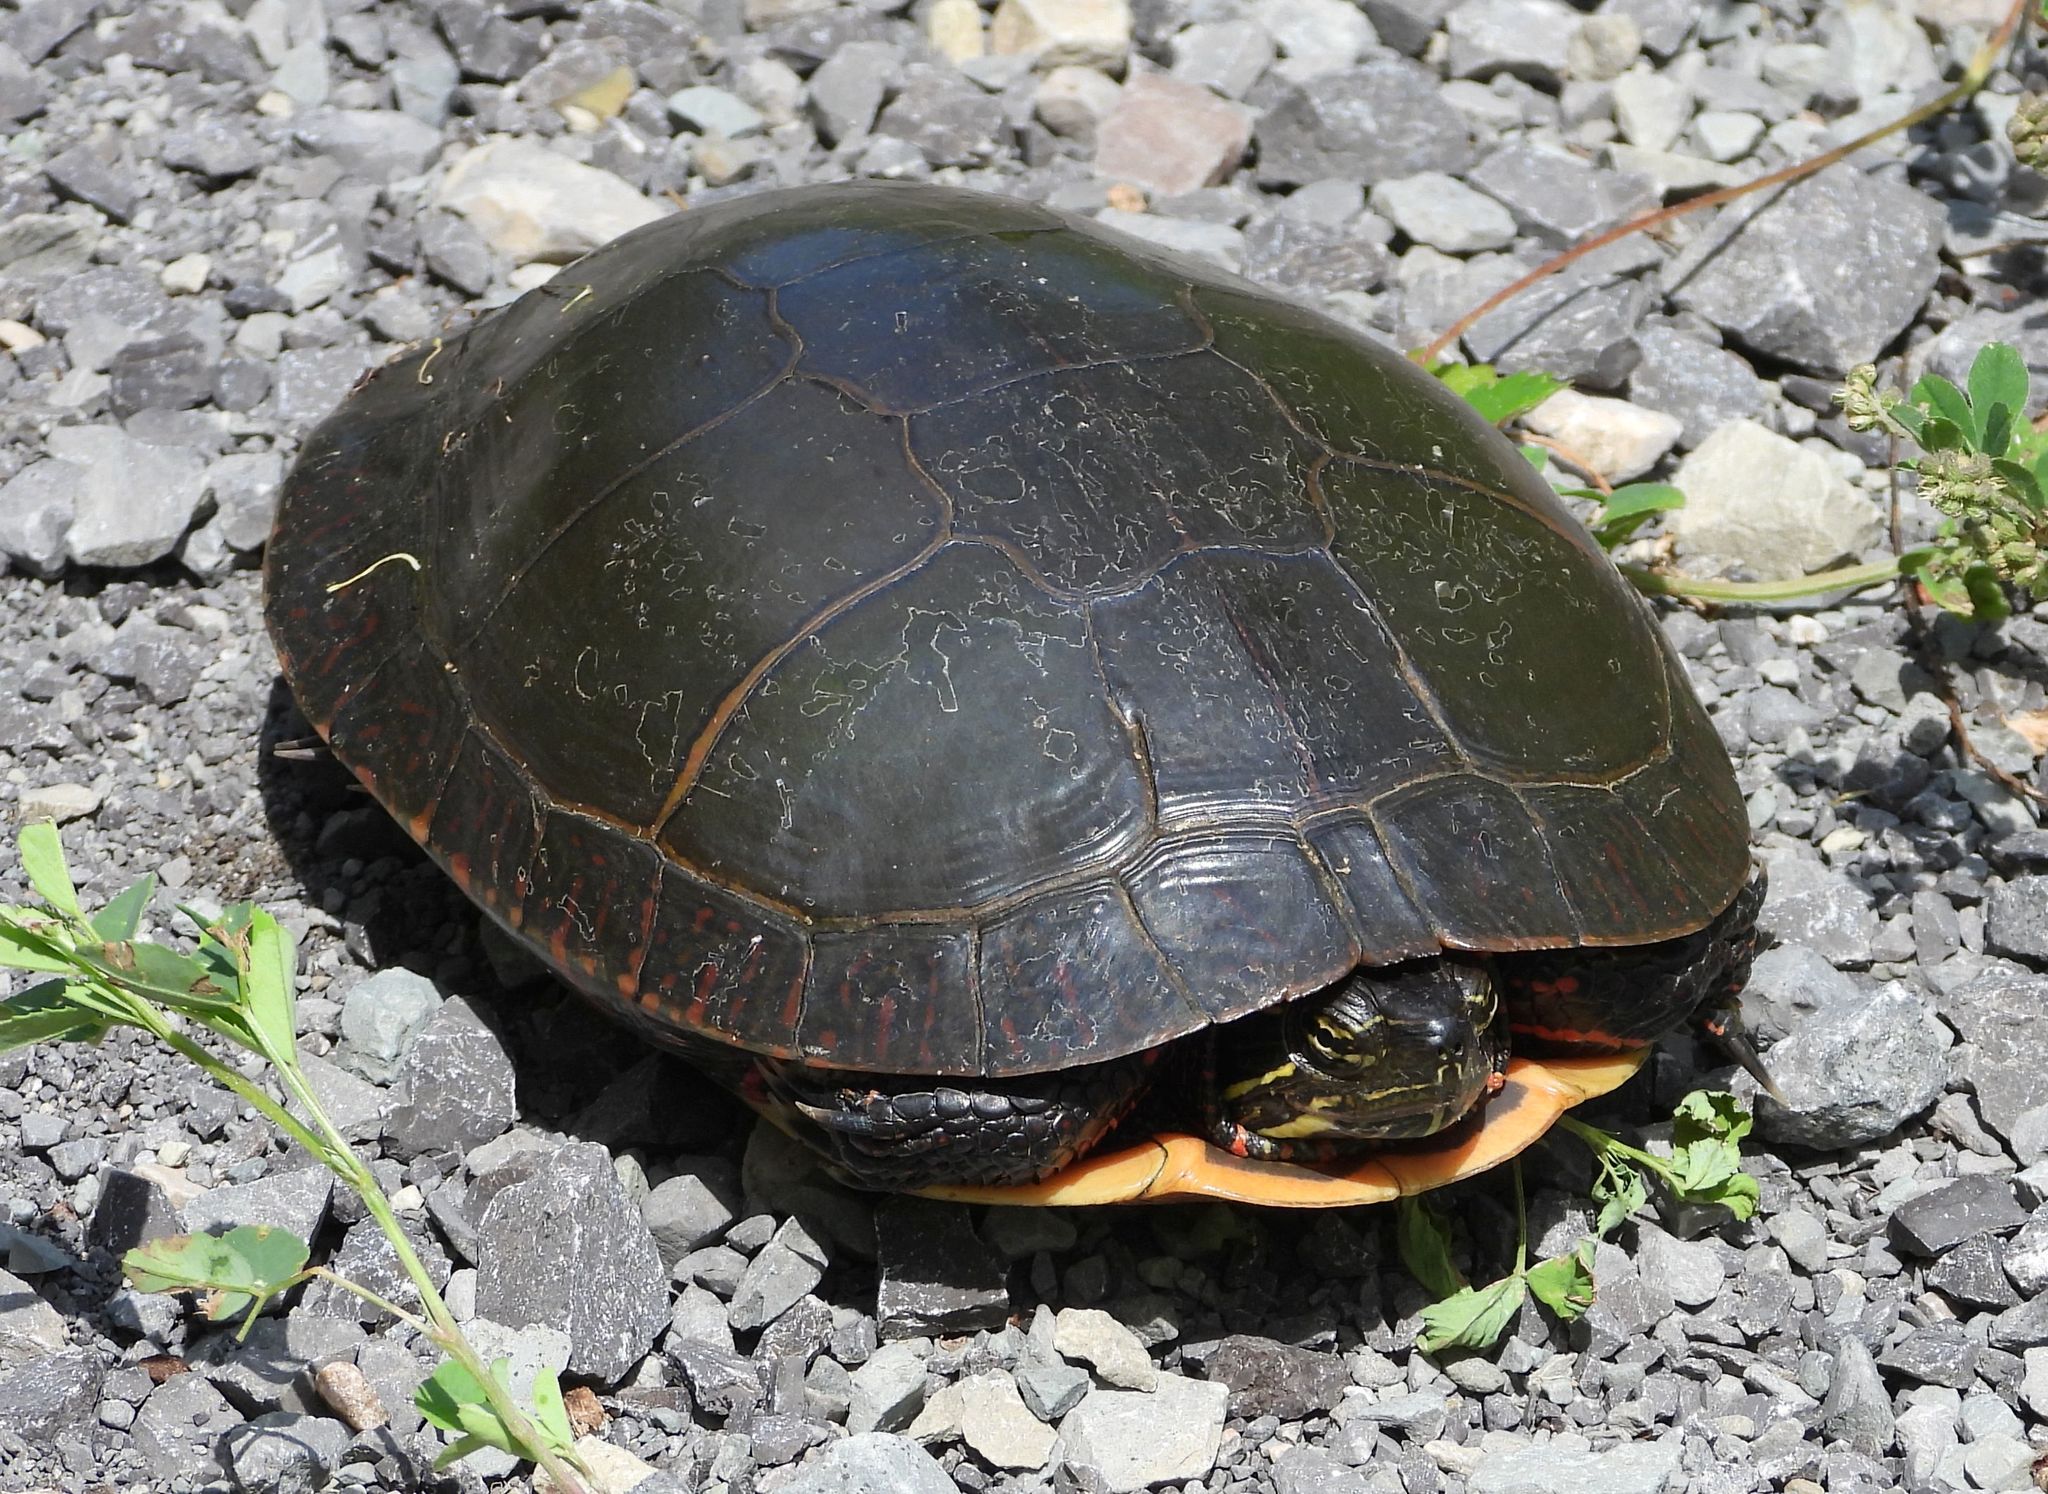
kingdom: Animalia
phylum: Chordata
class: Testudines
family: Emydidae
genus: Chrysemys
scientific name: Chrysemys picta
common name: Painted turtle
